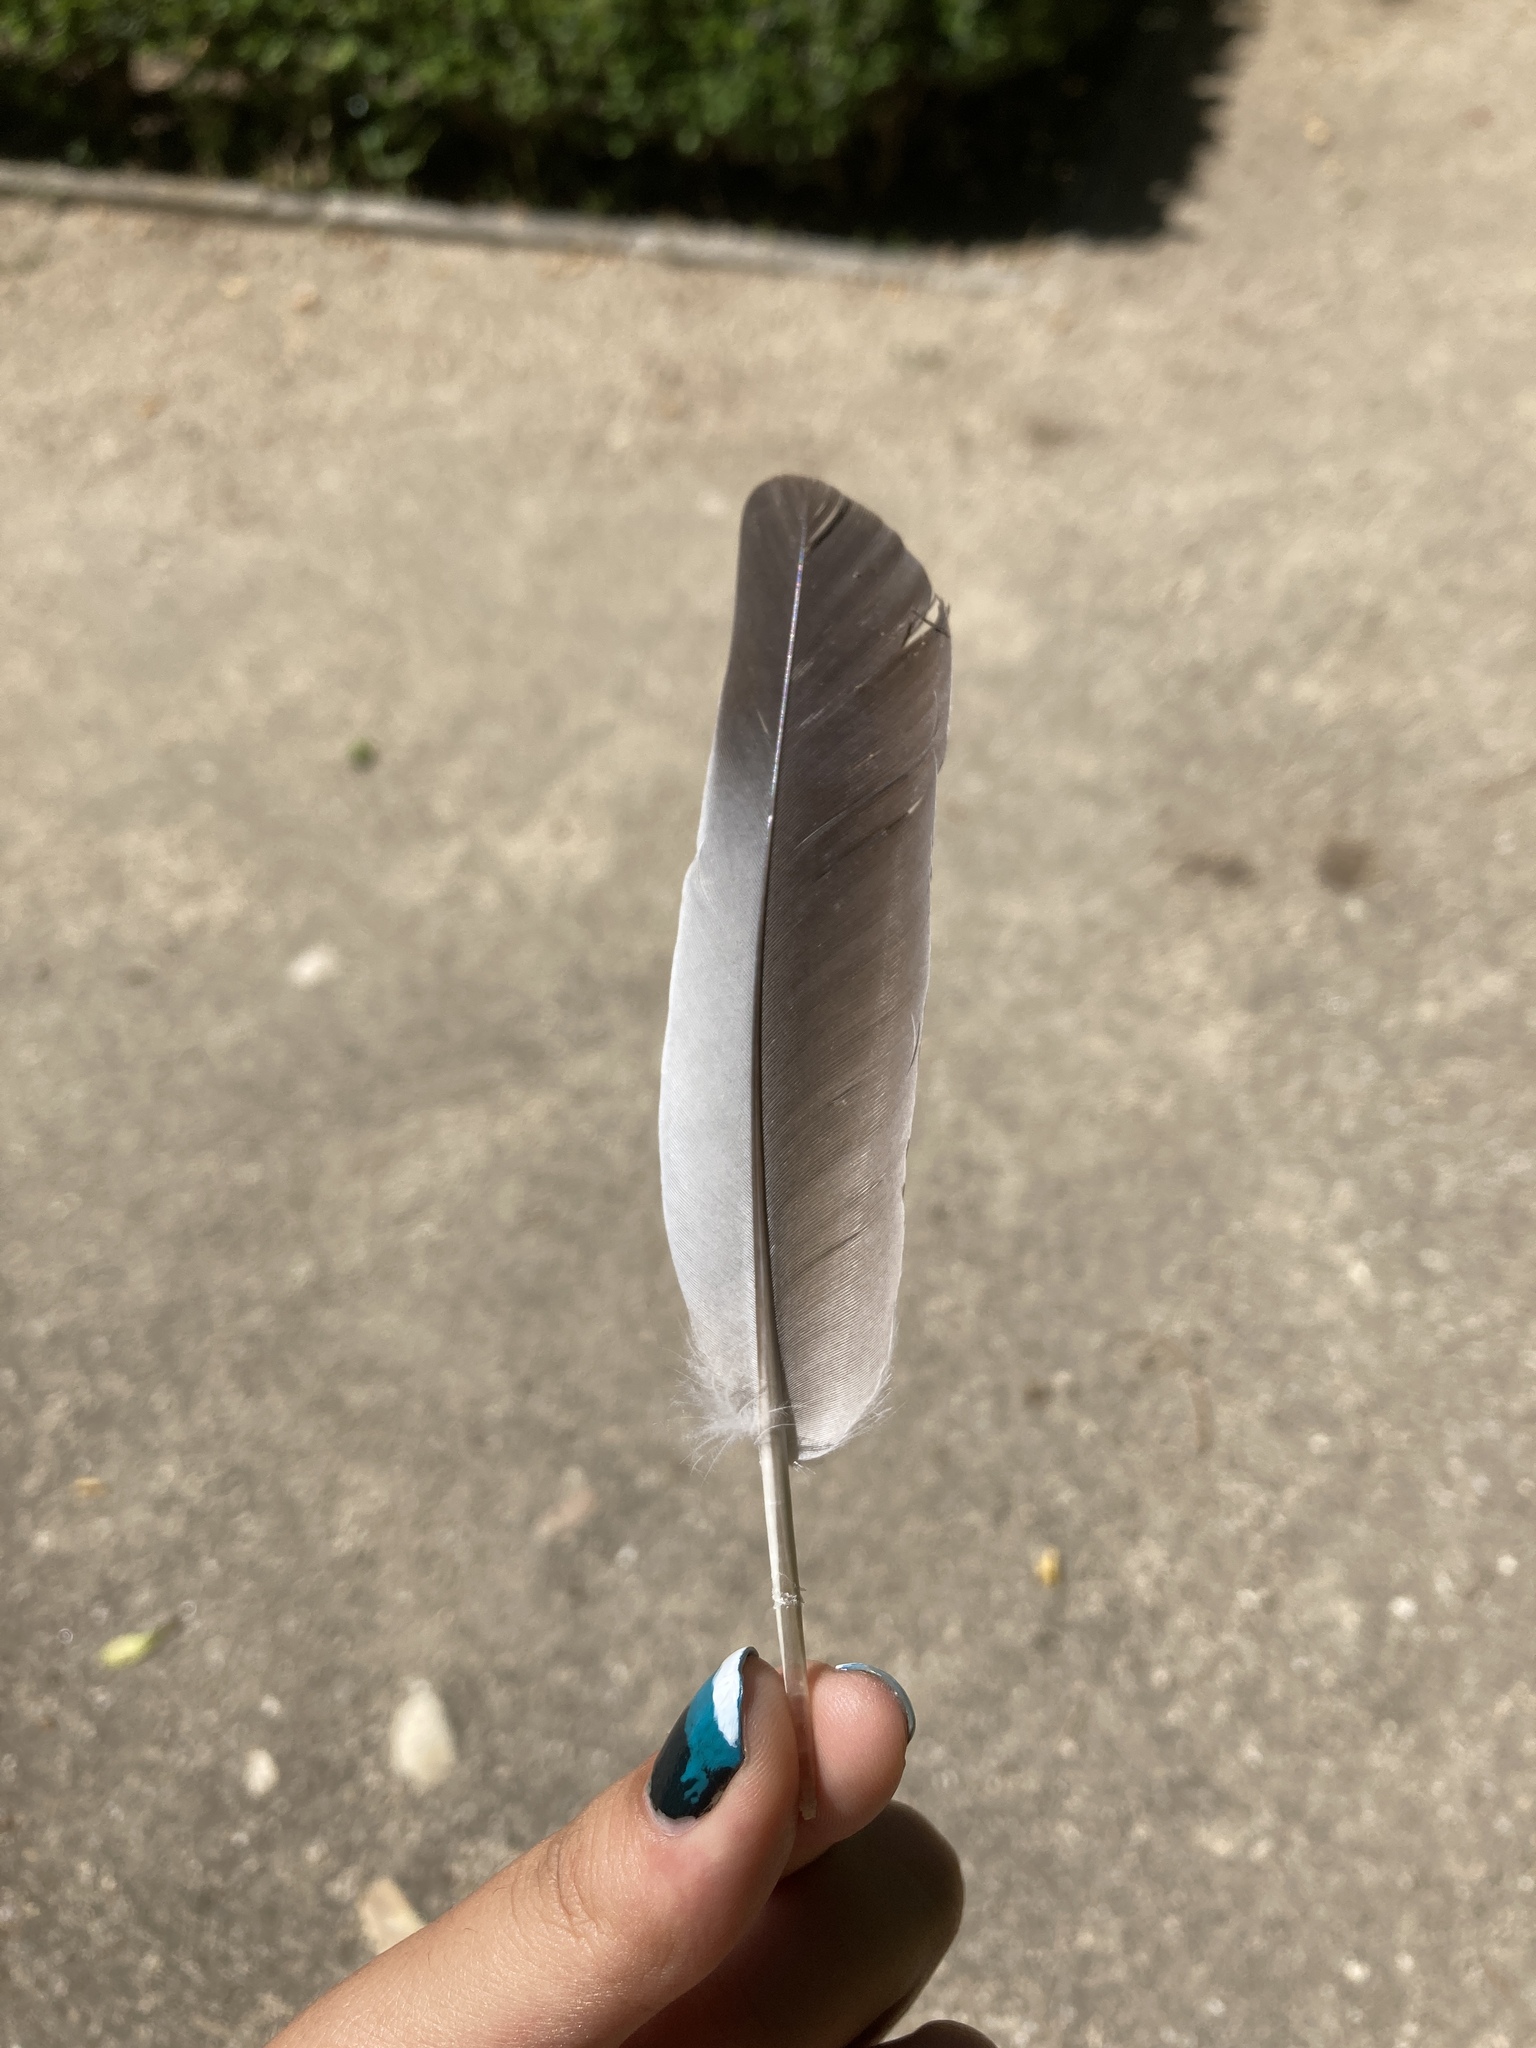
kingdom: Animalia
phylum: Chordata
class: Aves
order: Columbiformes
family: Columbidae
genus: Columba
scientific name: Columba oenas
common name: Stock dove
